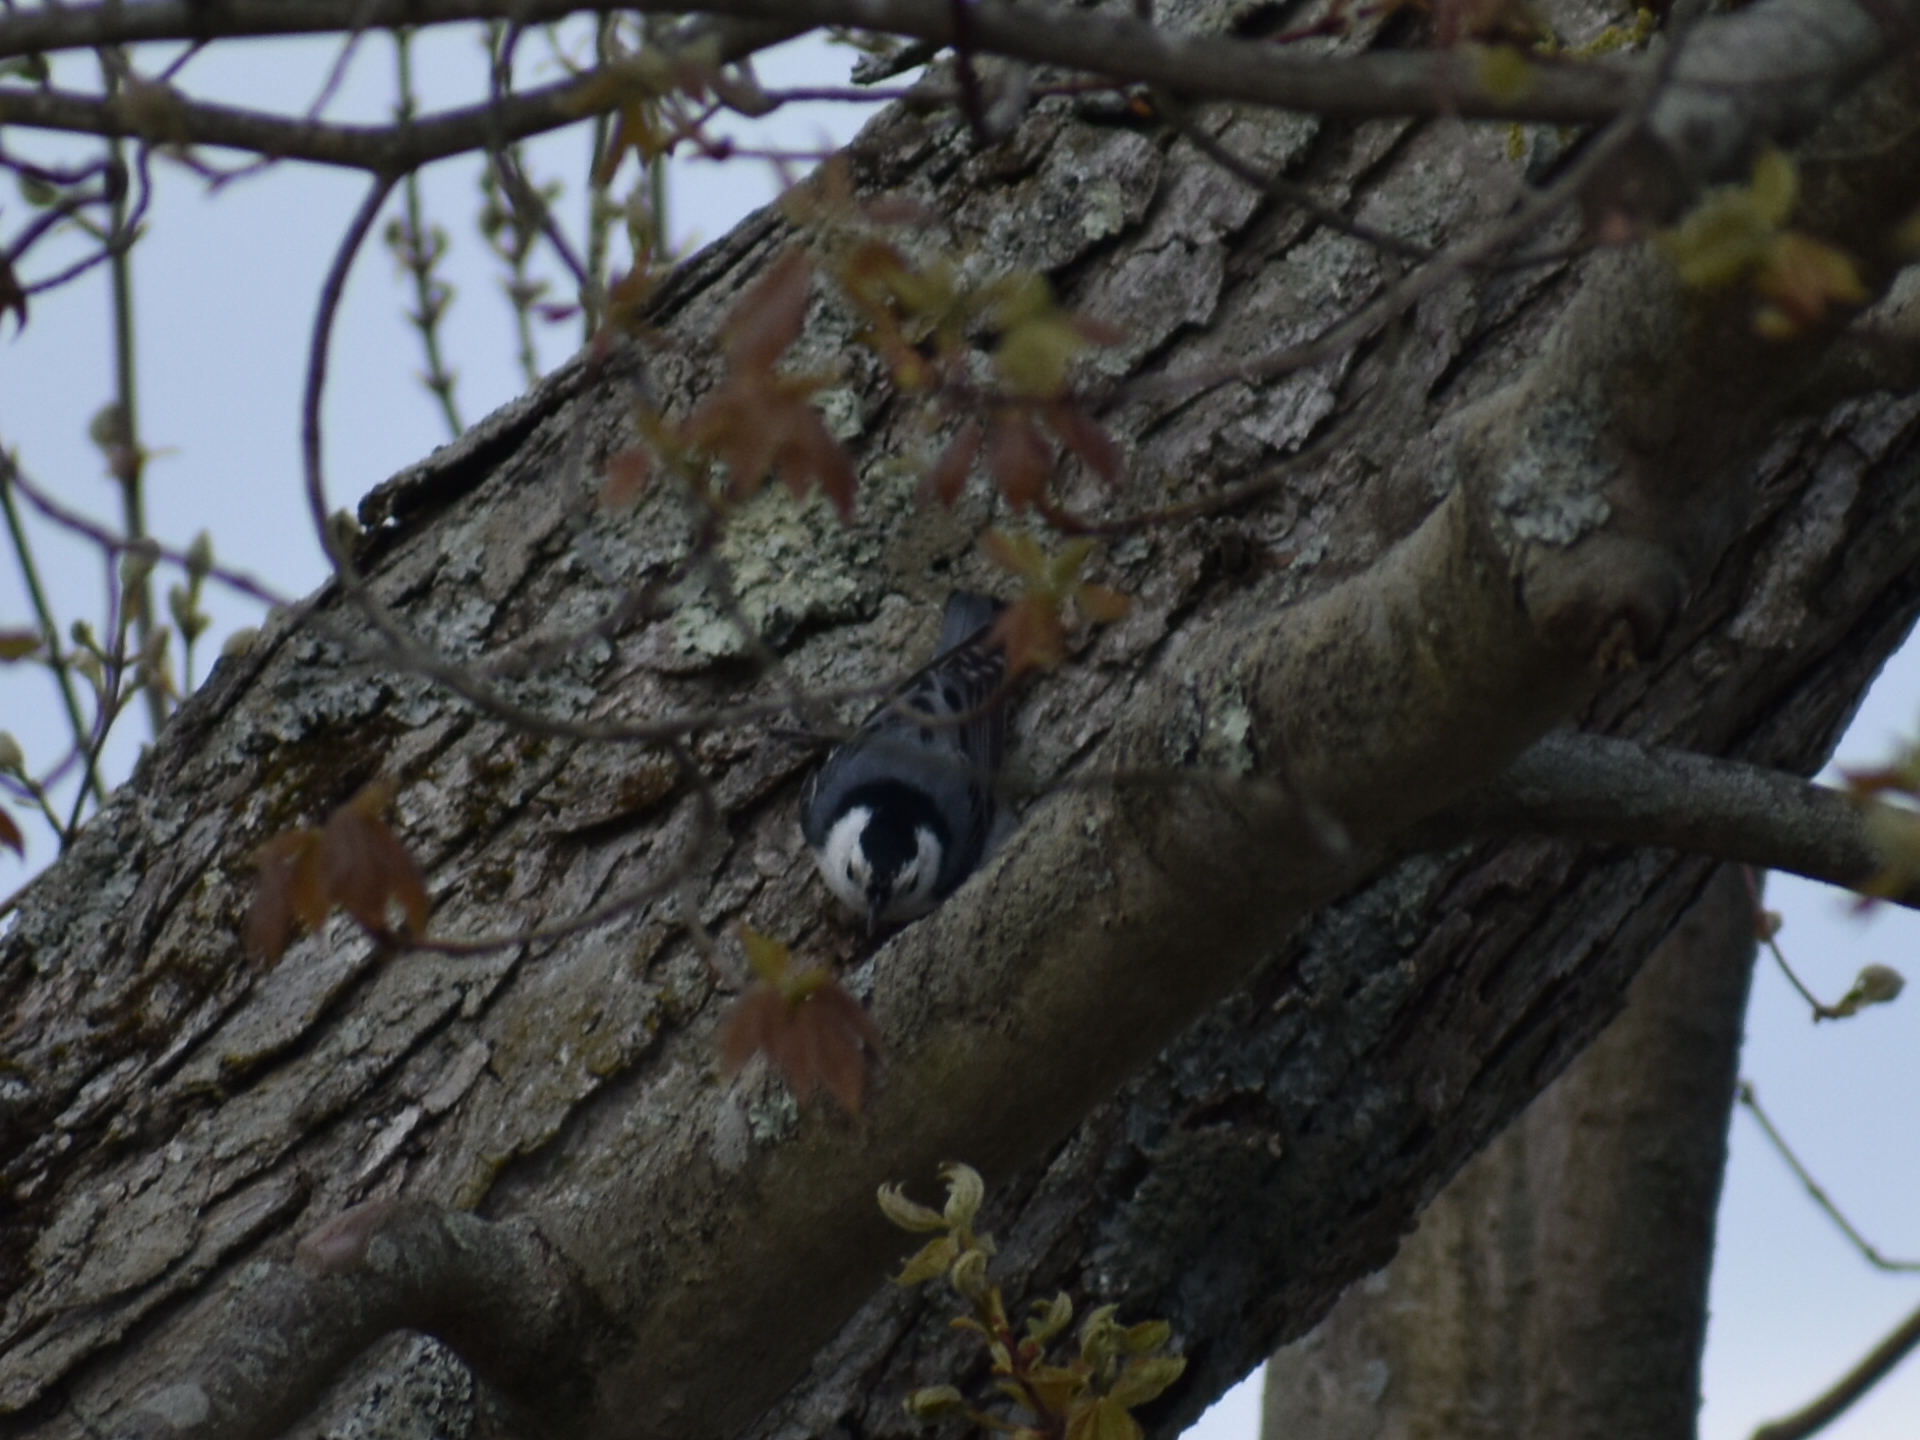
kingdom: Animalia
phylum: Chordata
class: Aves
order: Passeriformes
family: Sittidae
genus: Sitta
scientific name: Sitta carolinensis
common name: White-breasted nuthatch
